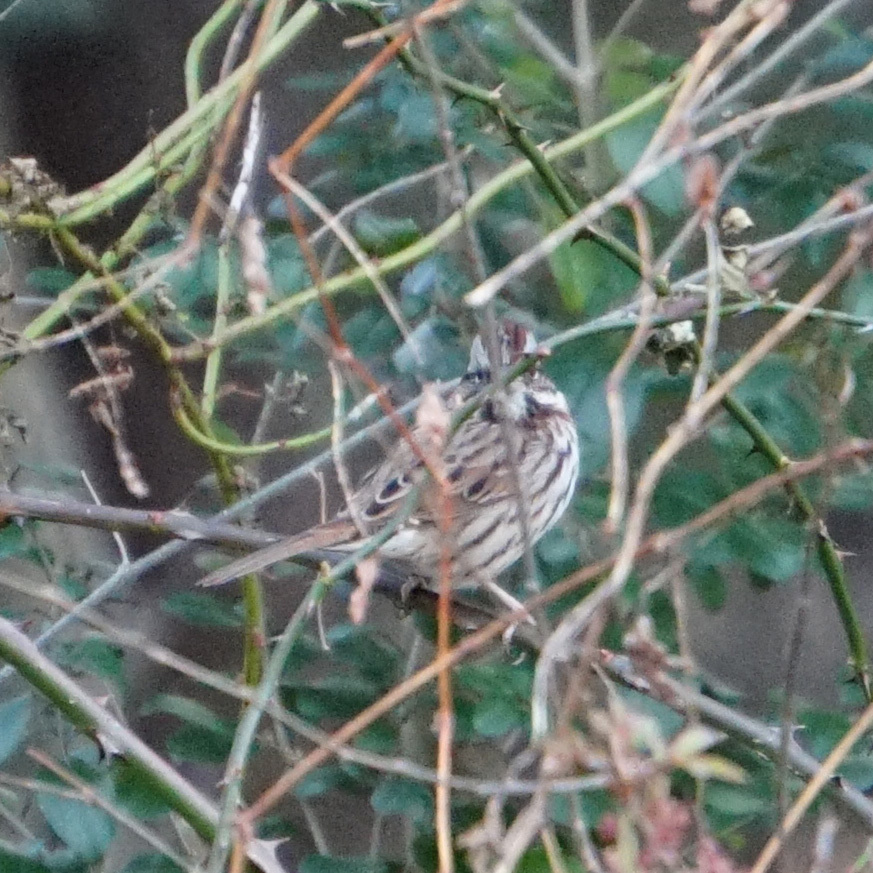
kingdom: Animalia
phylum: Chordata
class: Aves
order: Passeriformes
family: Passerellidae
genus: Melospiza
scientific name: Melospiza melodia
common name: Song sparrow
